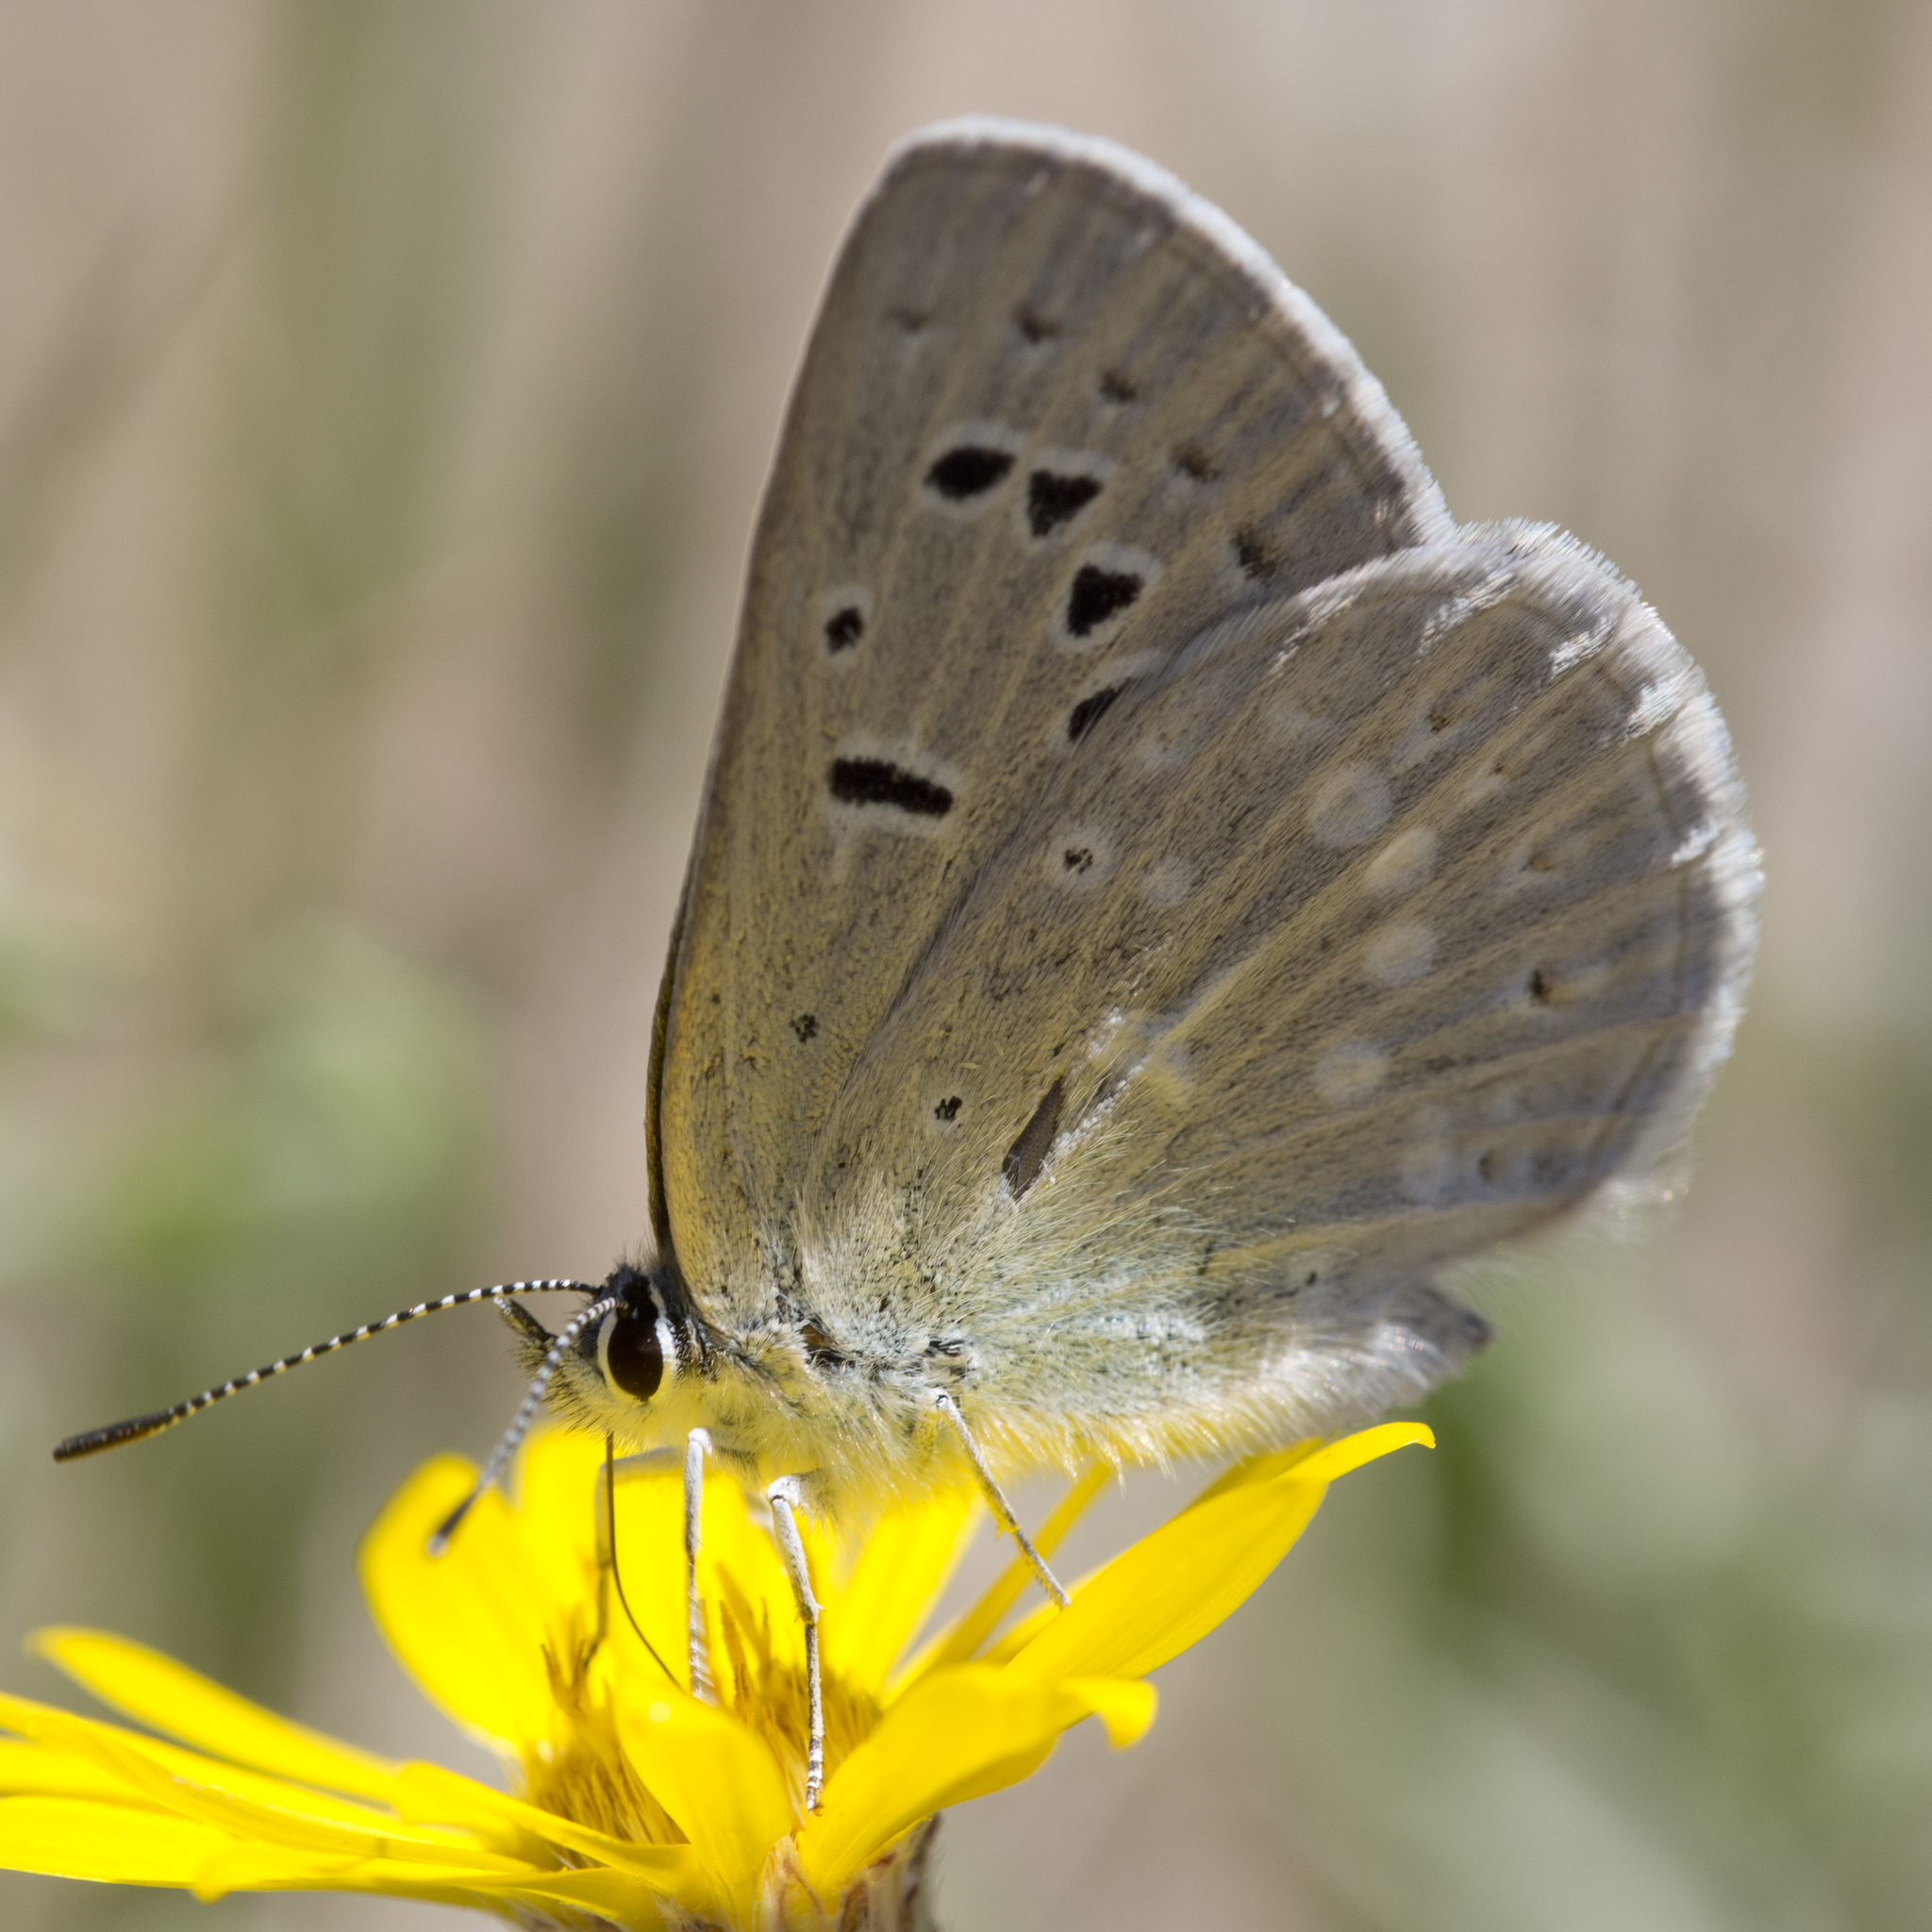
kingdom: Animalia
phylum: Arthropoda
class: Insecta
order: Lepidoptera
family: Lycaenidae
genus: Icaricia
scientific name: Icaricia icarioides
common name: Boisduval's blue
